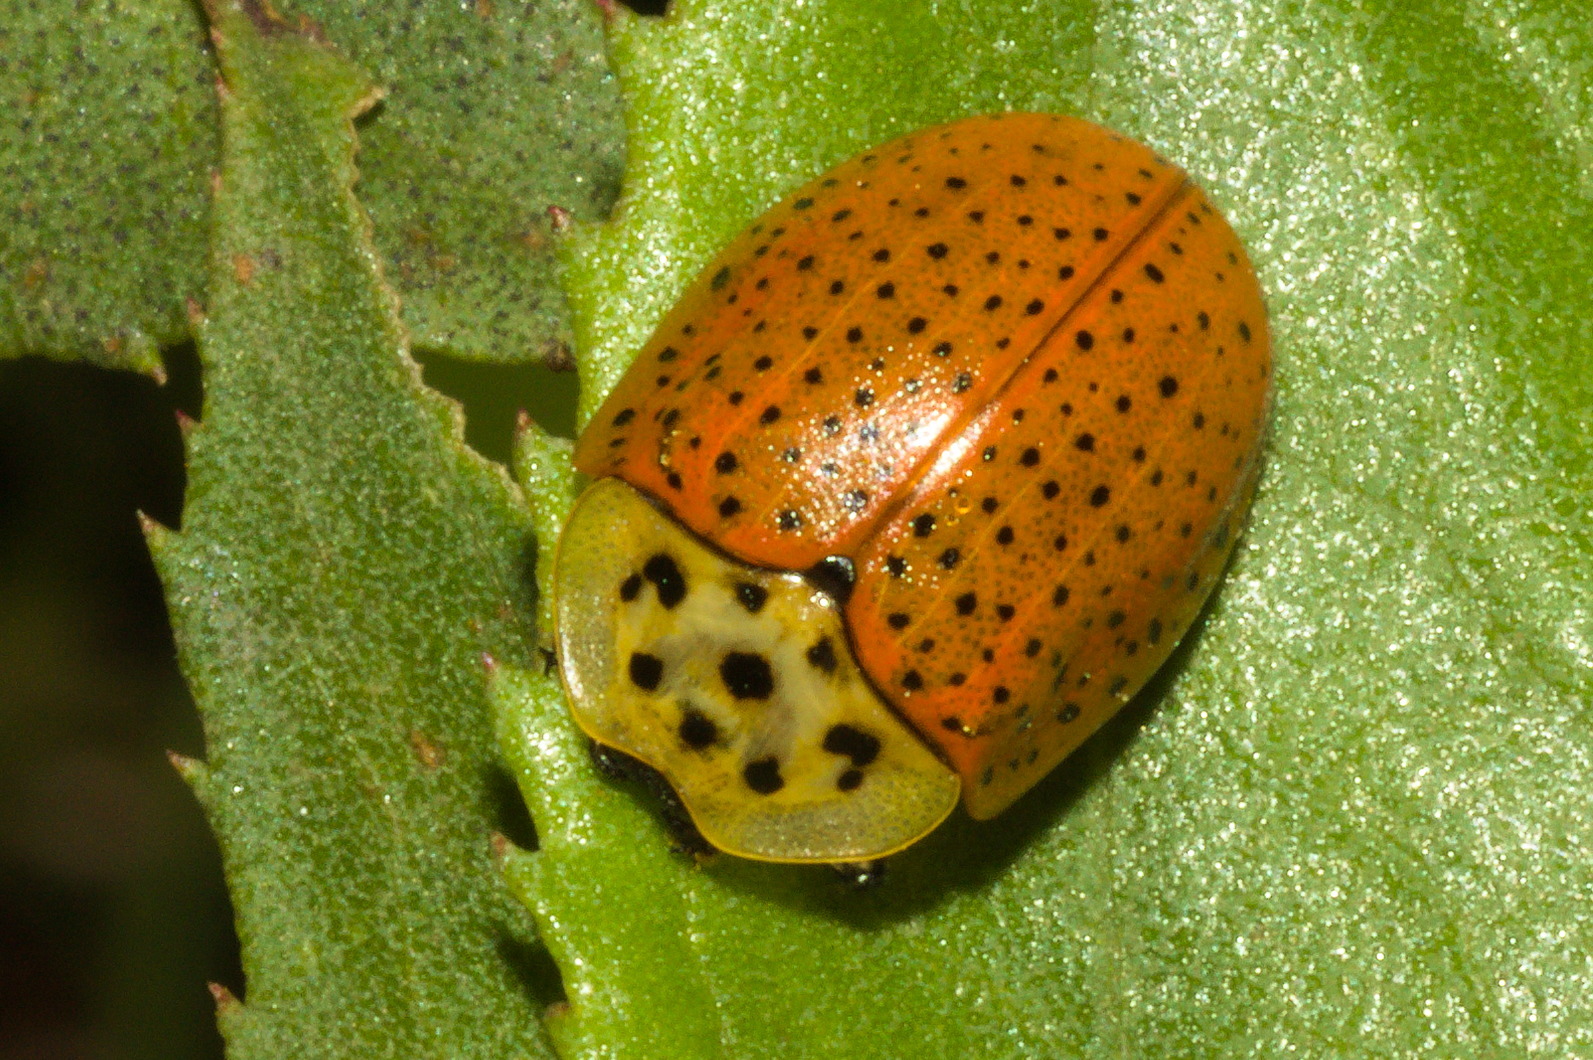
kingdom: Animalia
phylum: Arthropoda
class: Insecta
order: Coleoptera
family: Chrysomelidae
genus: Anacassis
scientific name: Anacassis cribrum
